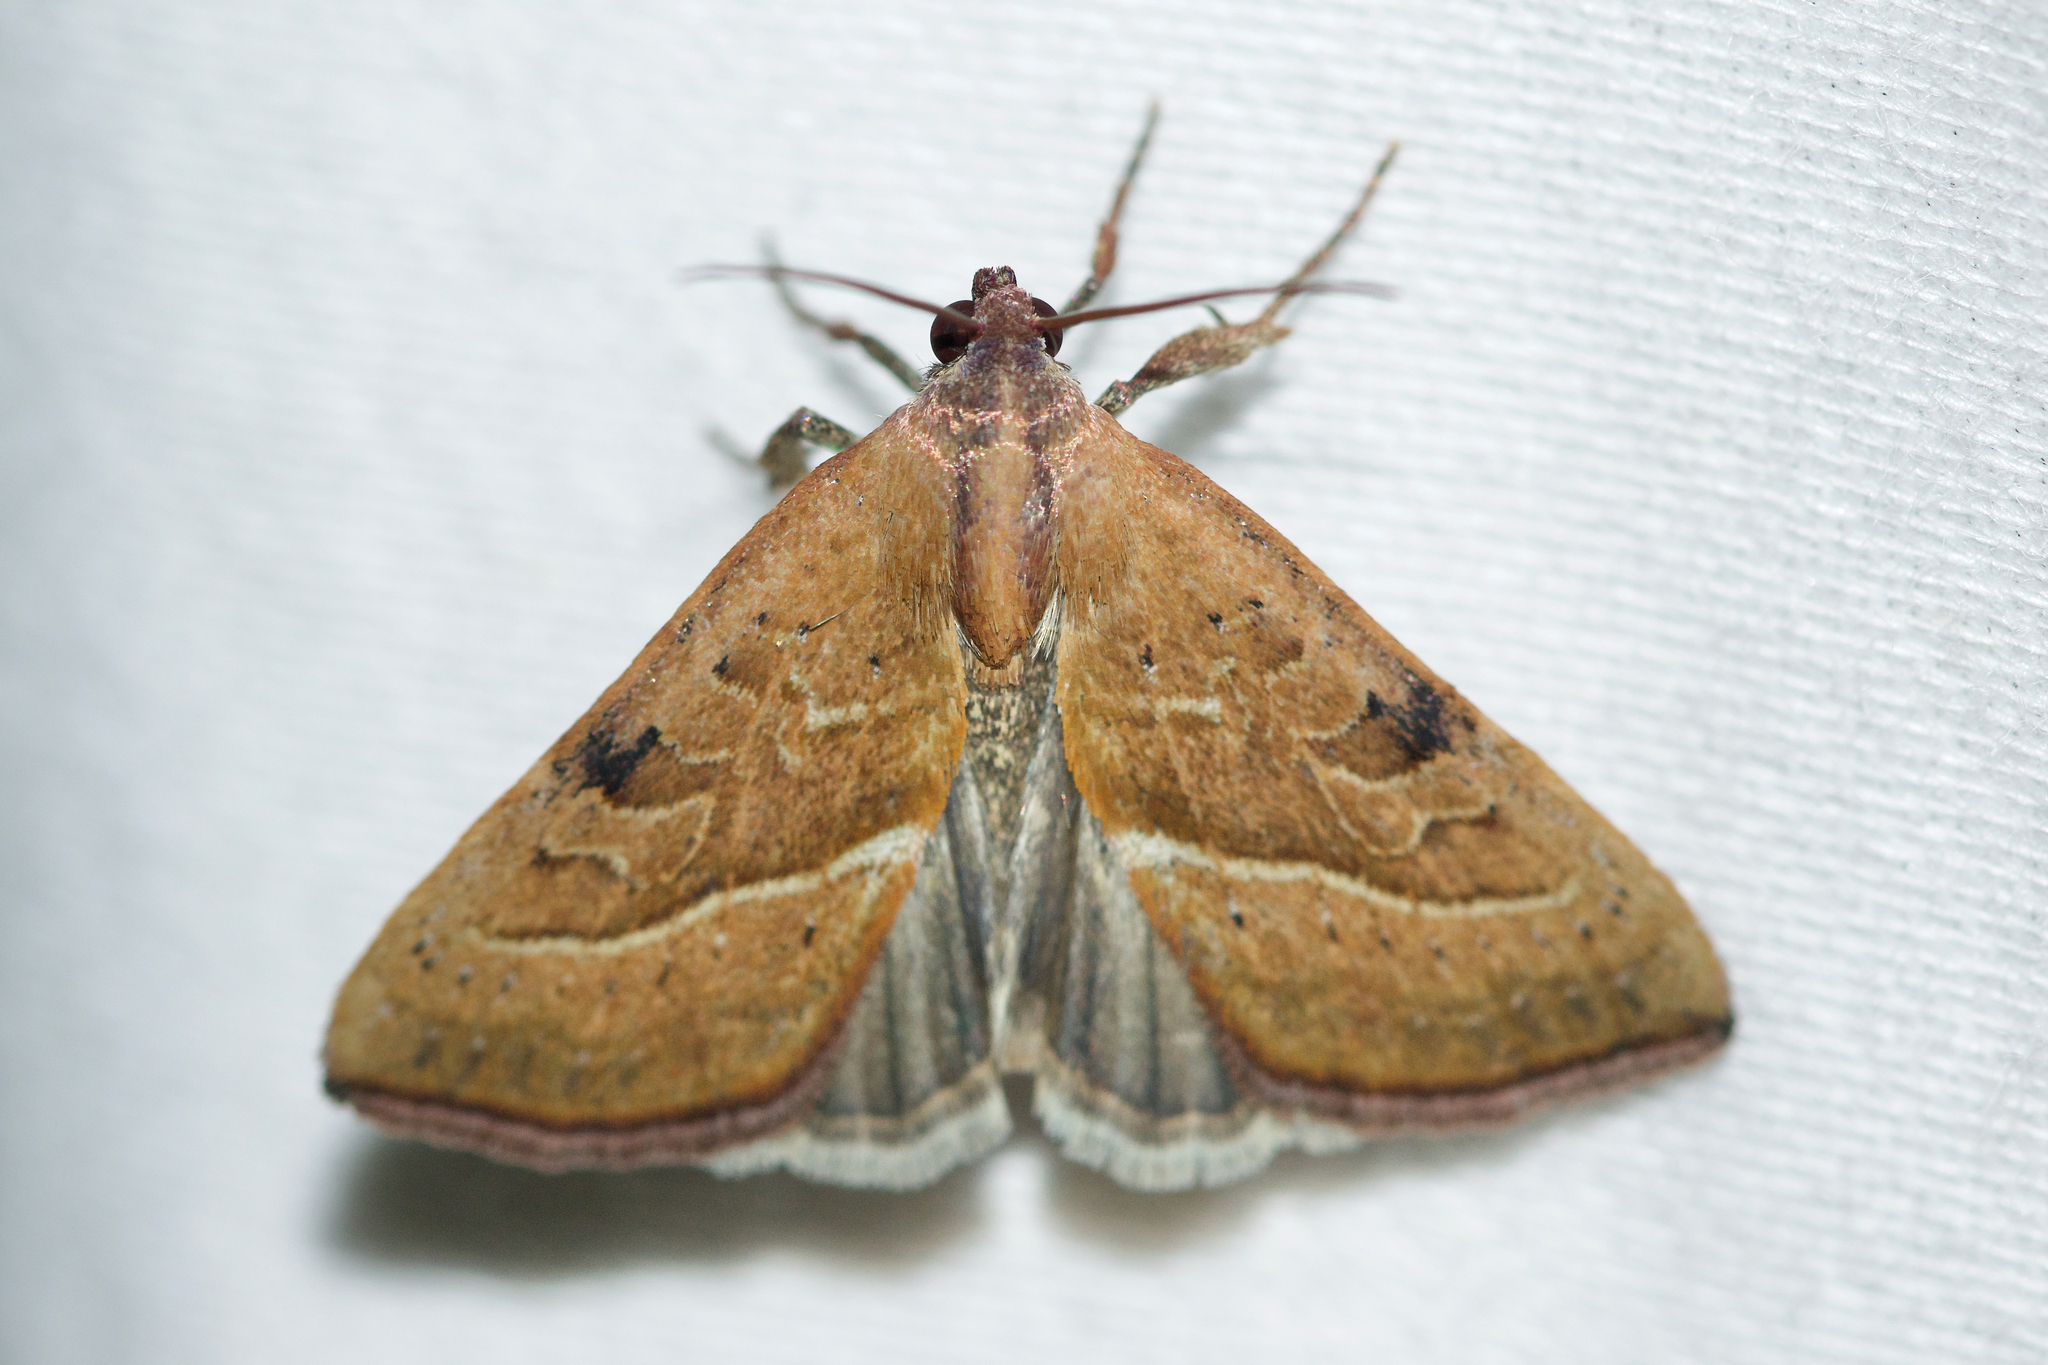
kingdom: Animalia
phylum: Arthropoda
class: Insecta
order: Lepidoptera
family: Noctuidae
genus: Galgula
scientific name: Galgula partita
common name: Wedgeling
